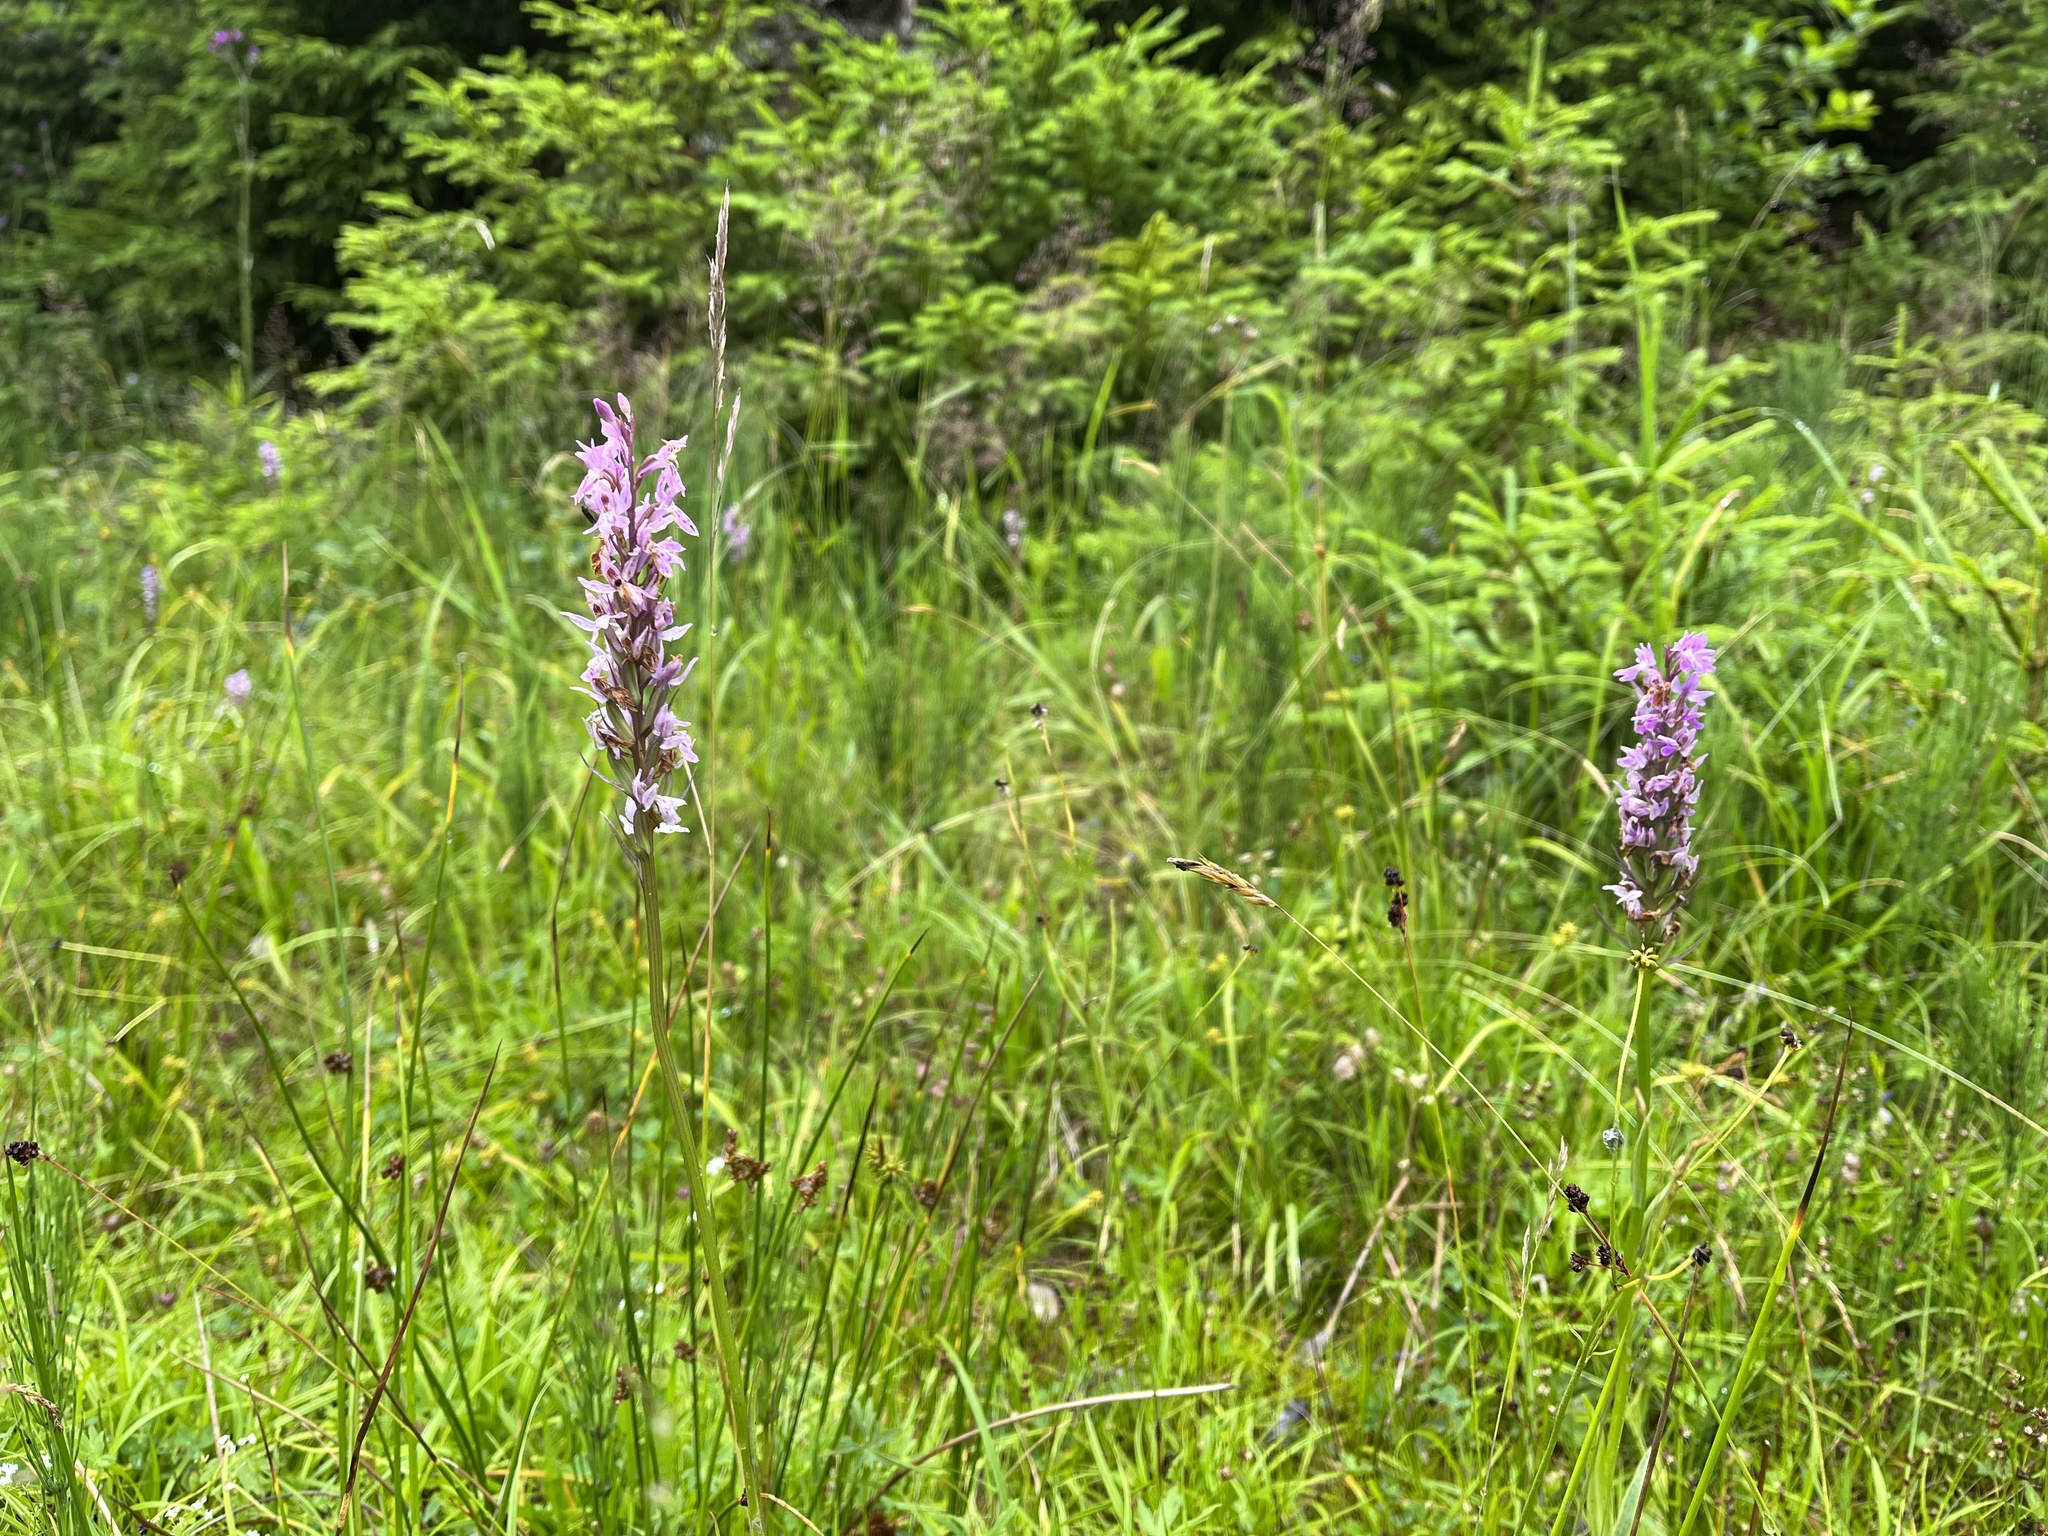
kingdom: Plantae
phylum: Tracheophyta
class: Liliopsida
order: Asparagales
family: Orchidaceae
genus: Dactylorhiza
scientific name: Dactylorhiza maculata
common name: Heath spotted-orchid
